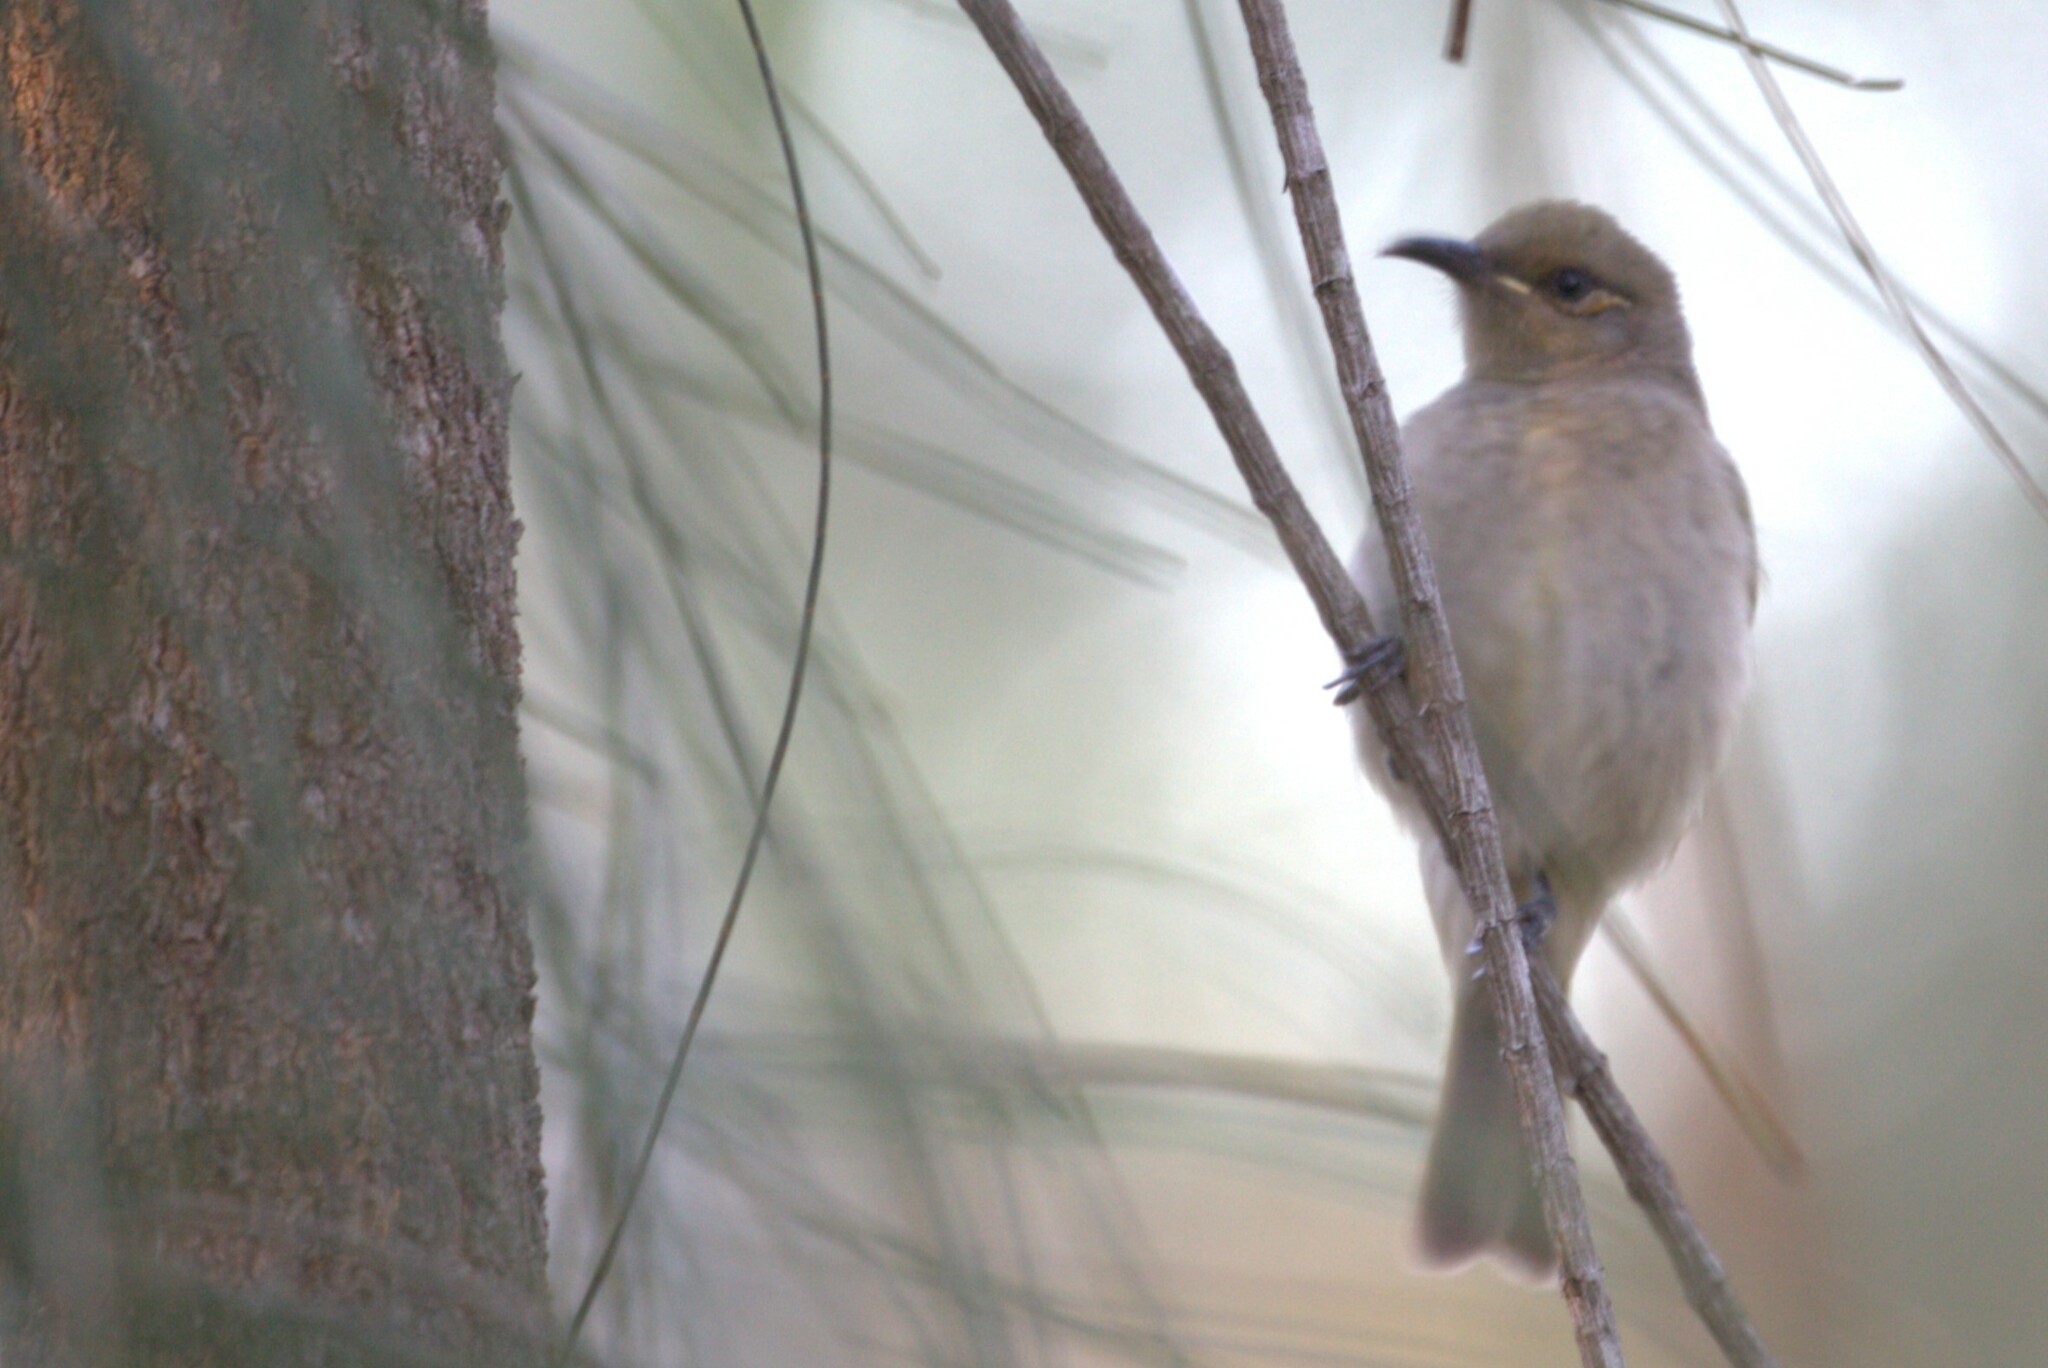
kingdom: Animalia
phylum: Chordata
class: Aves
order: Passeriformes
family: Meliphagidae
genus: Lichmera
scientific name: Lichmera indistincta
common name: Brown honeyeater
